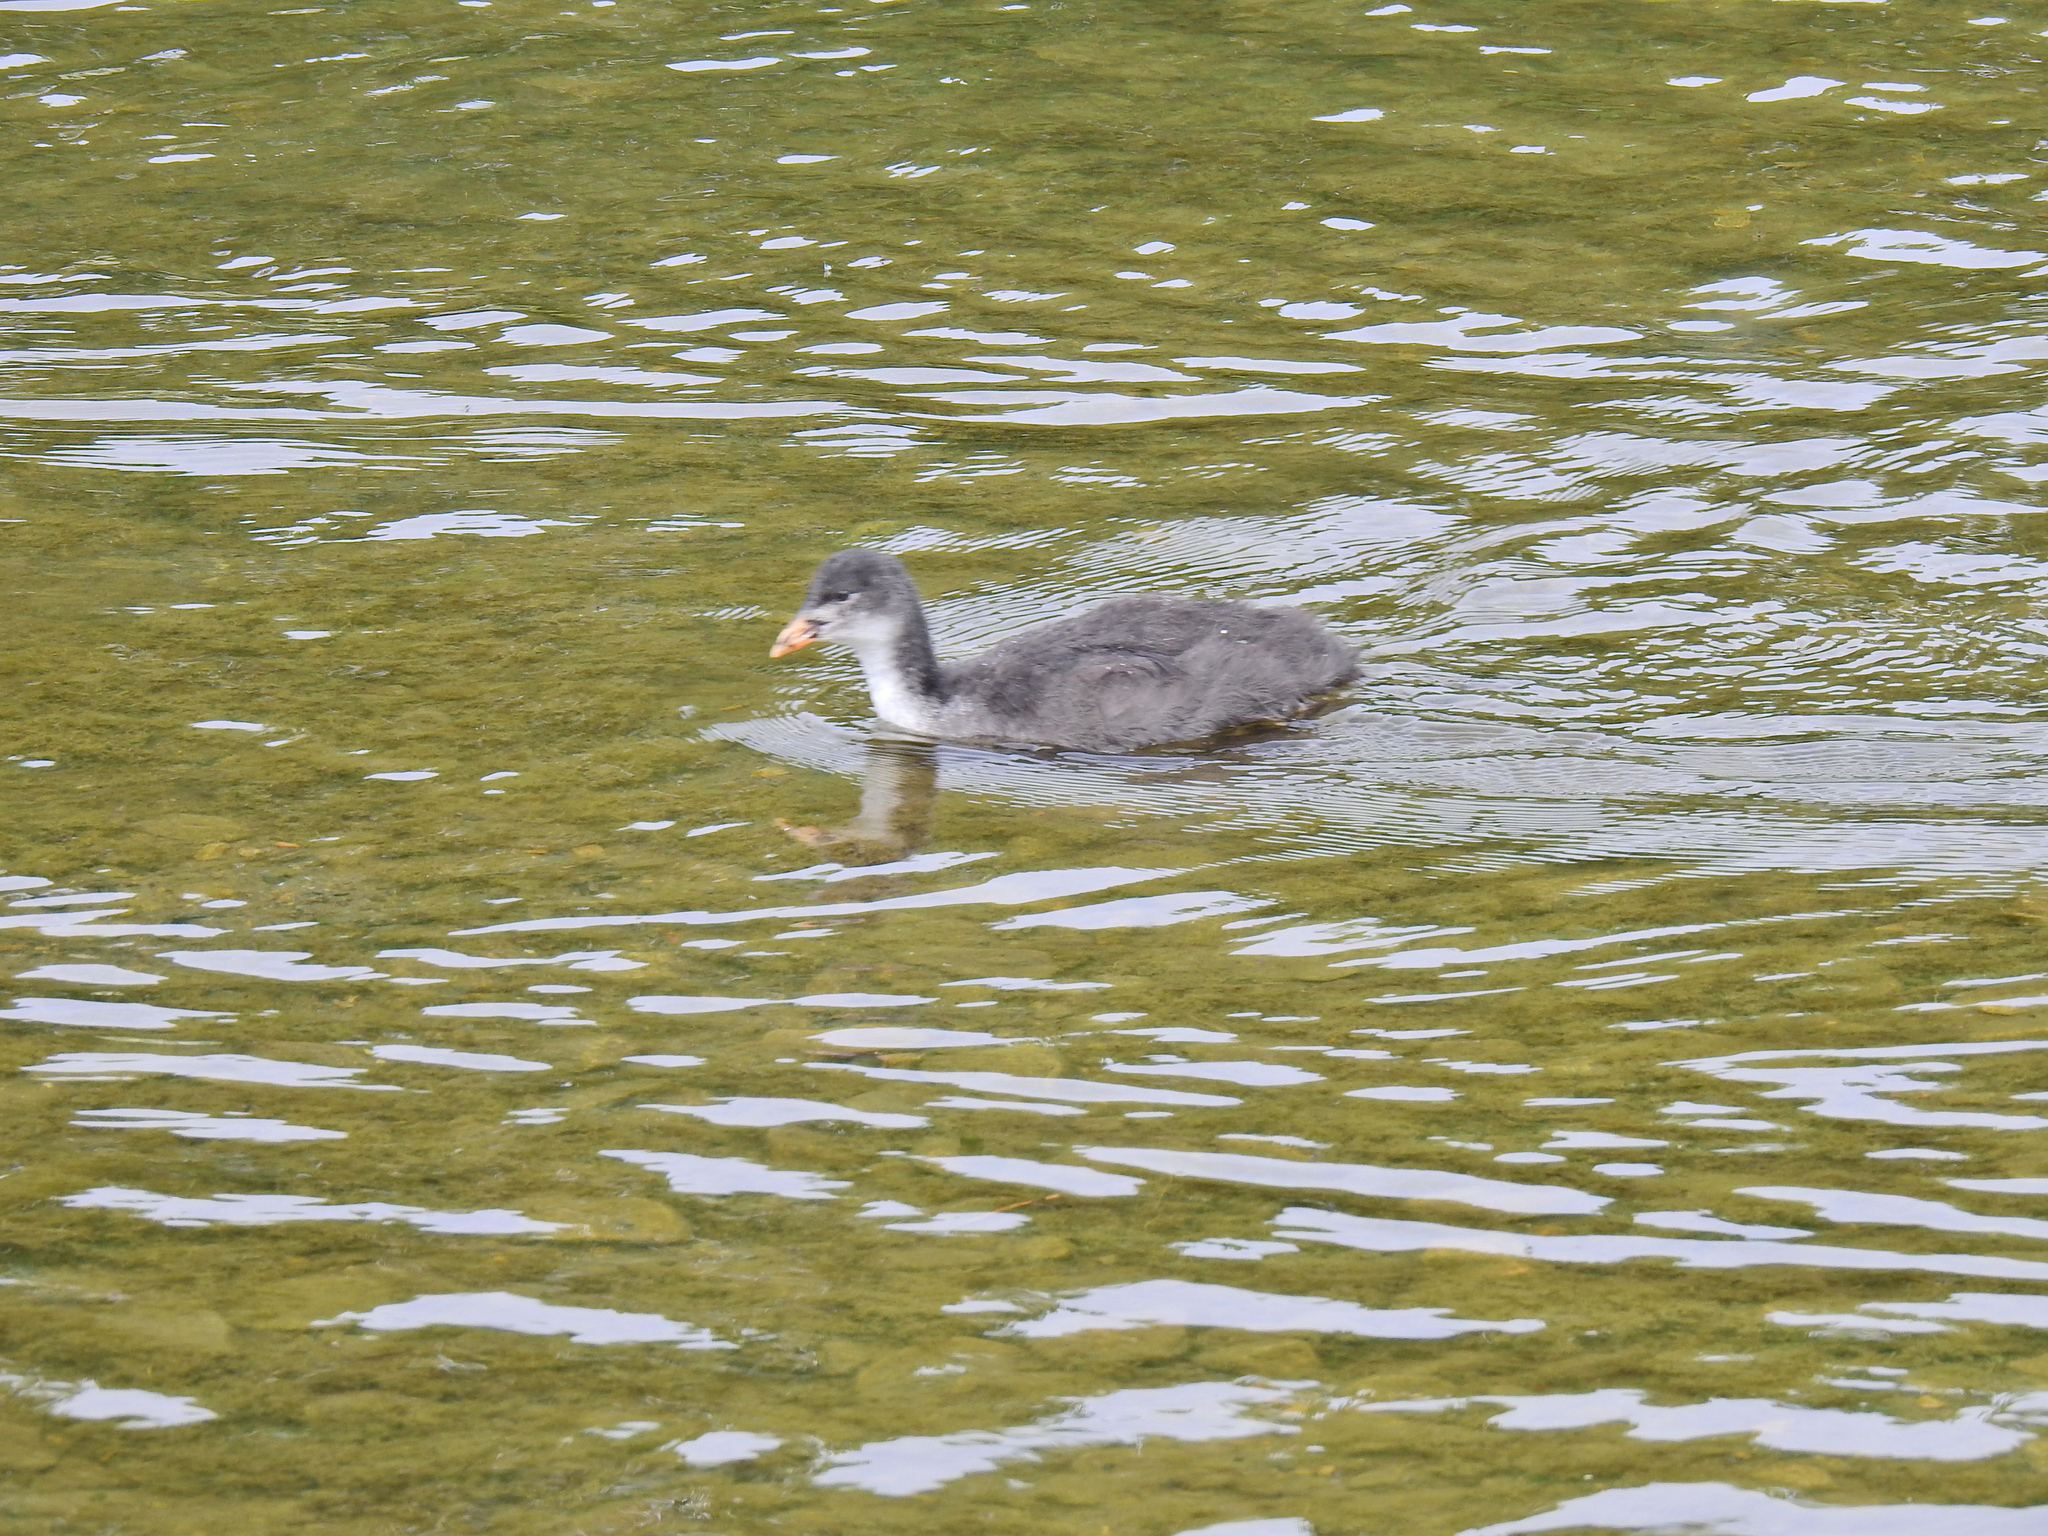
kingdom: Animalia
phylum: Chordata
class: Aves
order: Gruiformes
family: Rallidae
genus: Fulica
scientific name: Fulica atra
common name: Eurasian coot
